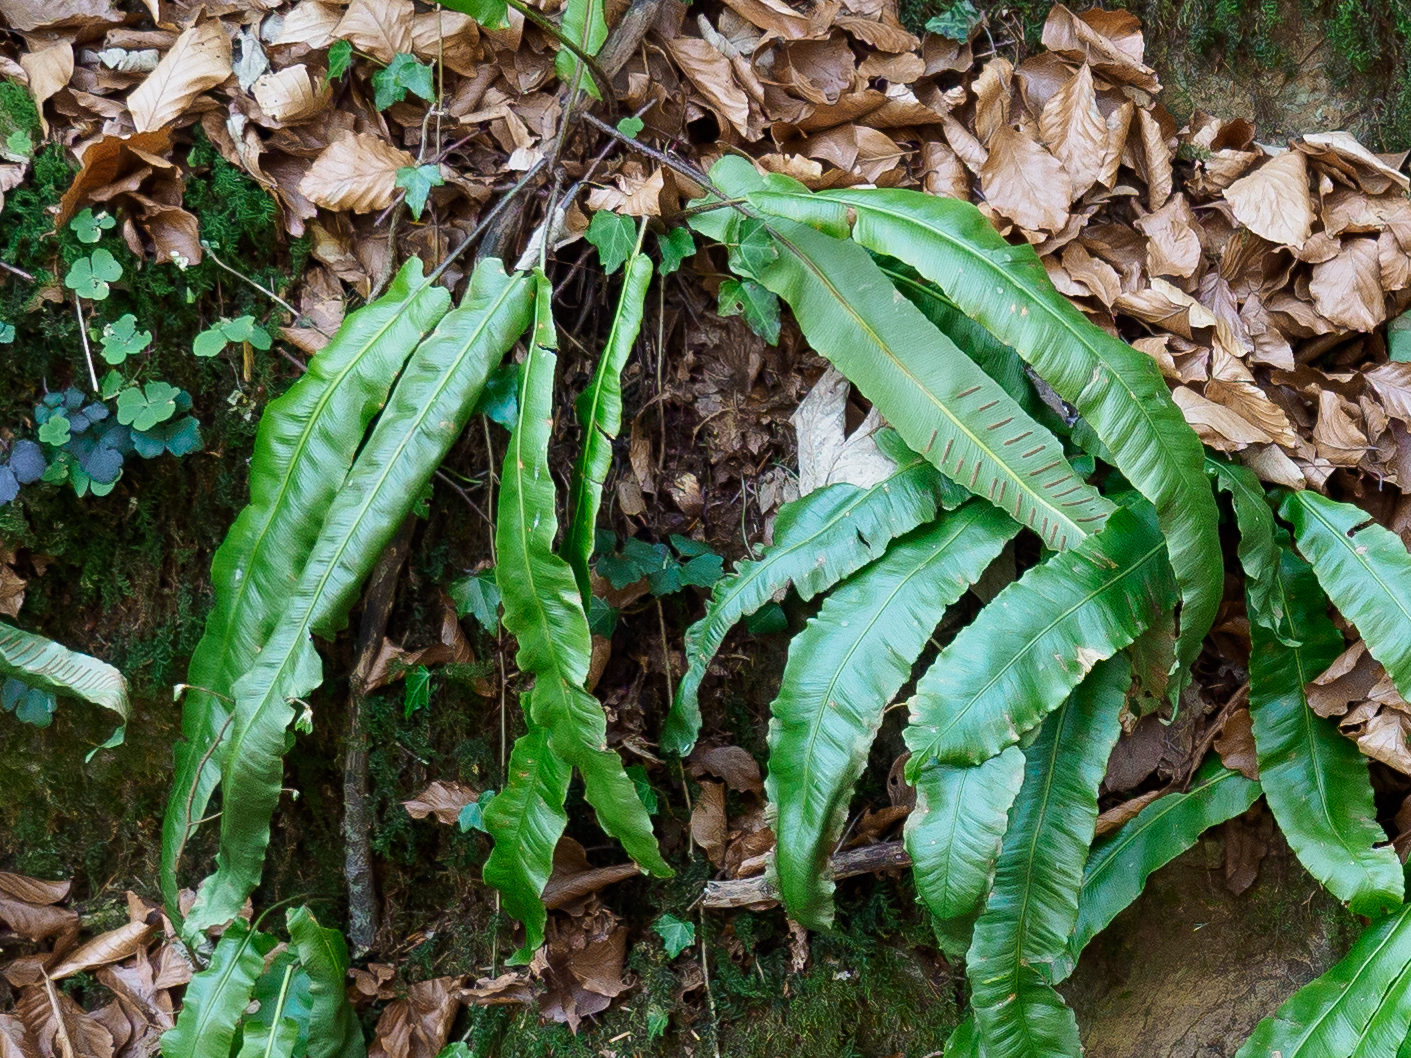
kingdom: Plantae
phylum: Tracheophyta
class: Polypodiopsida
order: Polypodiales
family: Aspleniaceae
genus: Asplenium
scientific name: Asplenium scolopendrium
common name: Hart's-tongue fern
